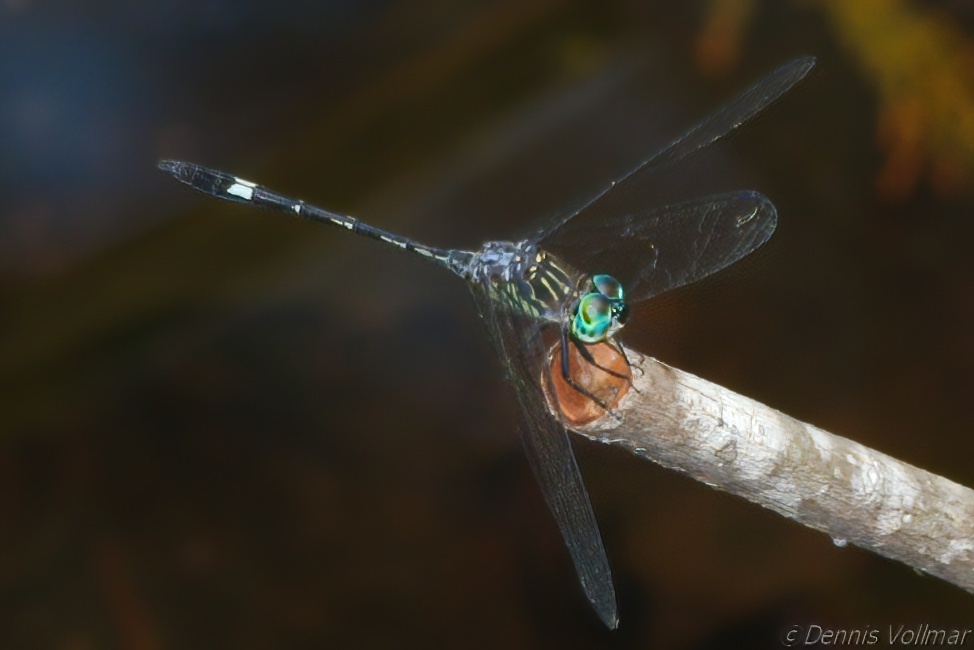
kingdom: Animalia
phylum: Arthropoda
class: Insecta
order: Odonata
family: Libellulidae
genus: Micrathyria
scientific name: Micrathyria didyma
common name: Three-striped dasher
